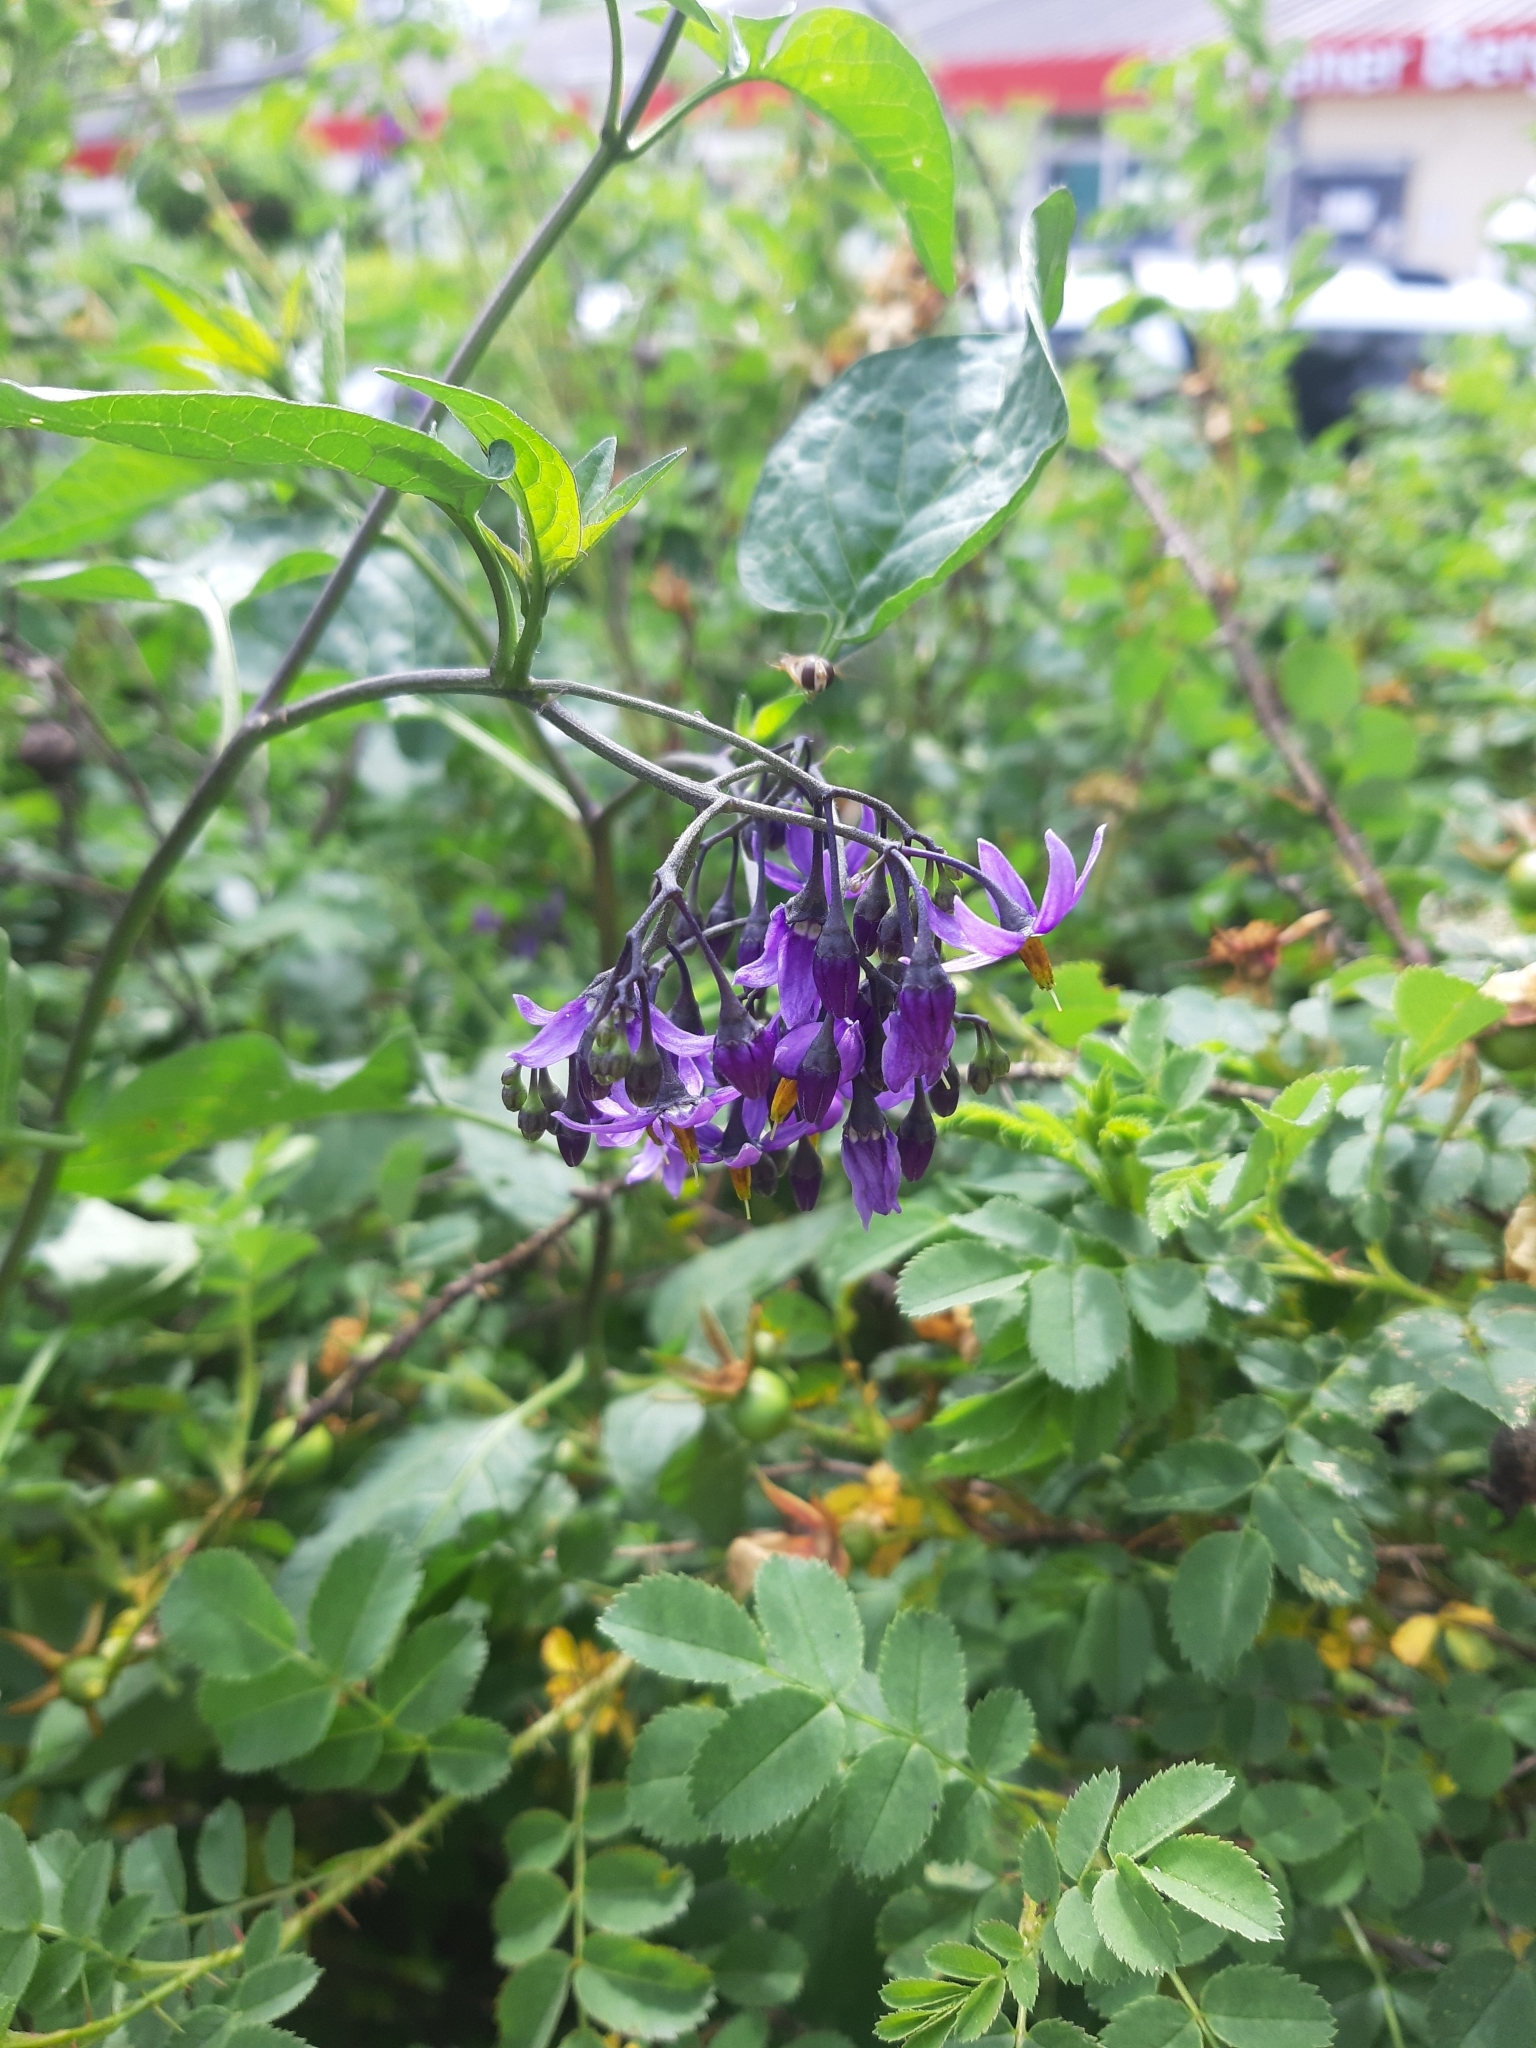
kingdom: Plantae
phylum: Tracheophyta
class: Magnoliopsida
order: Solanales
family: Solanaceae
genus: Solanum
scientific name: Solanum dulcamara
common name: Climbing nightshade
